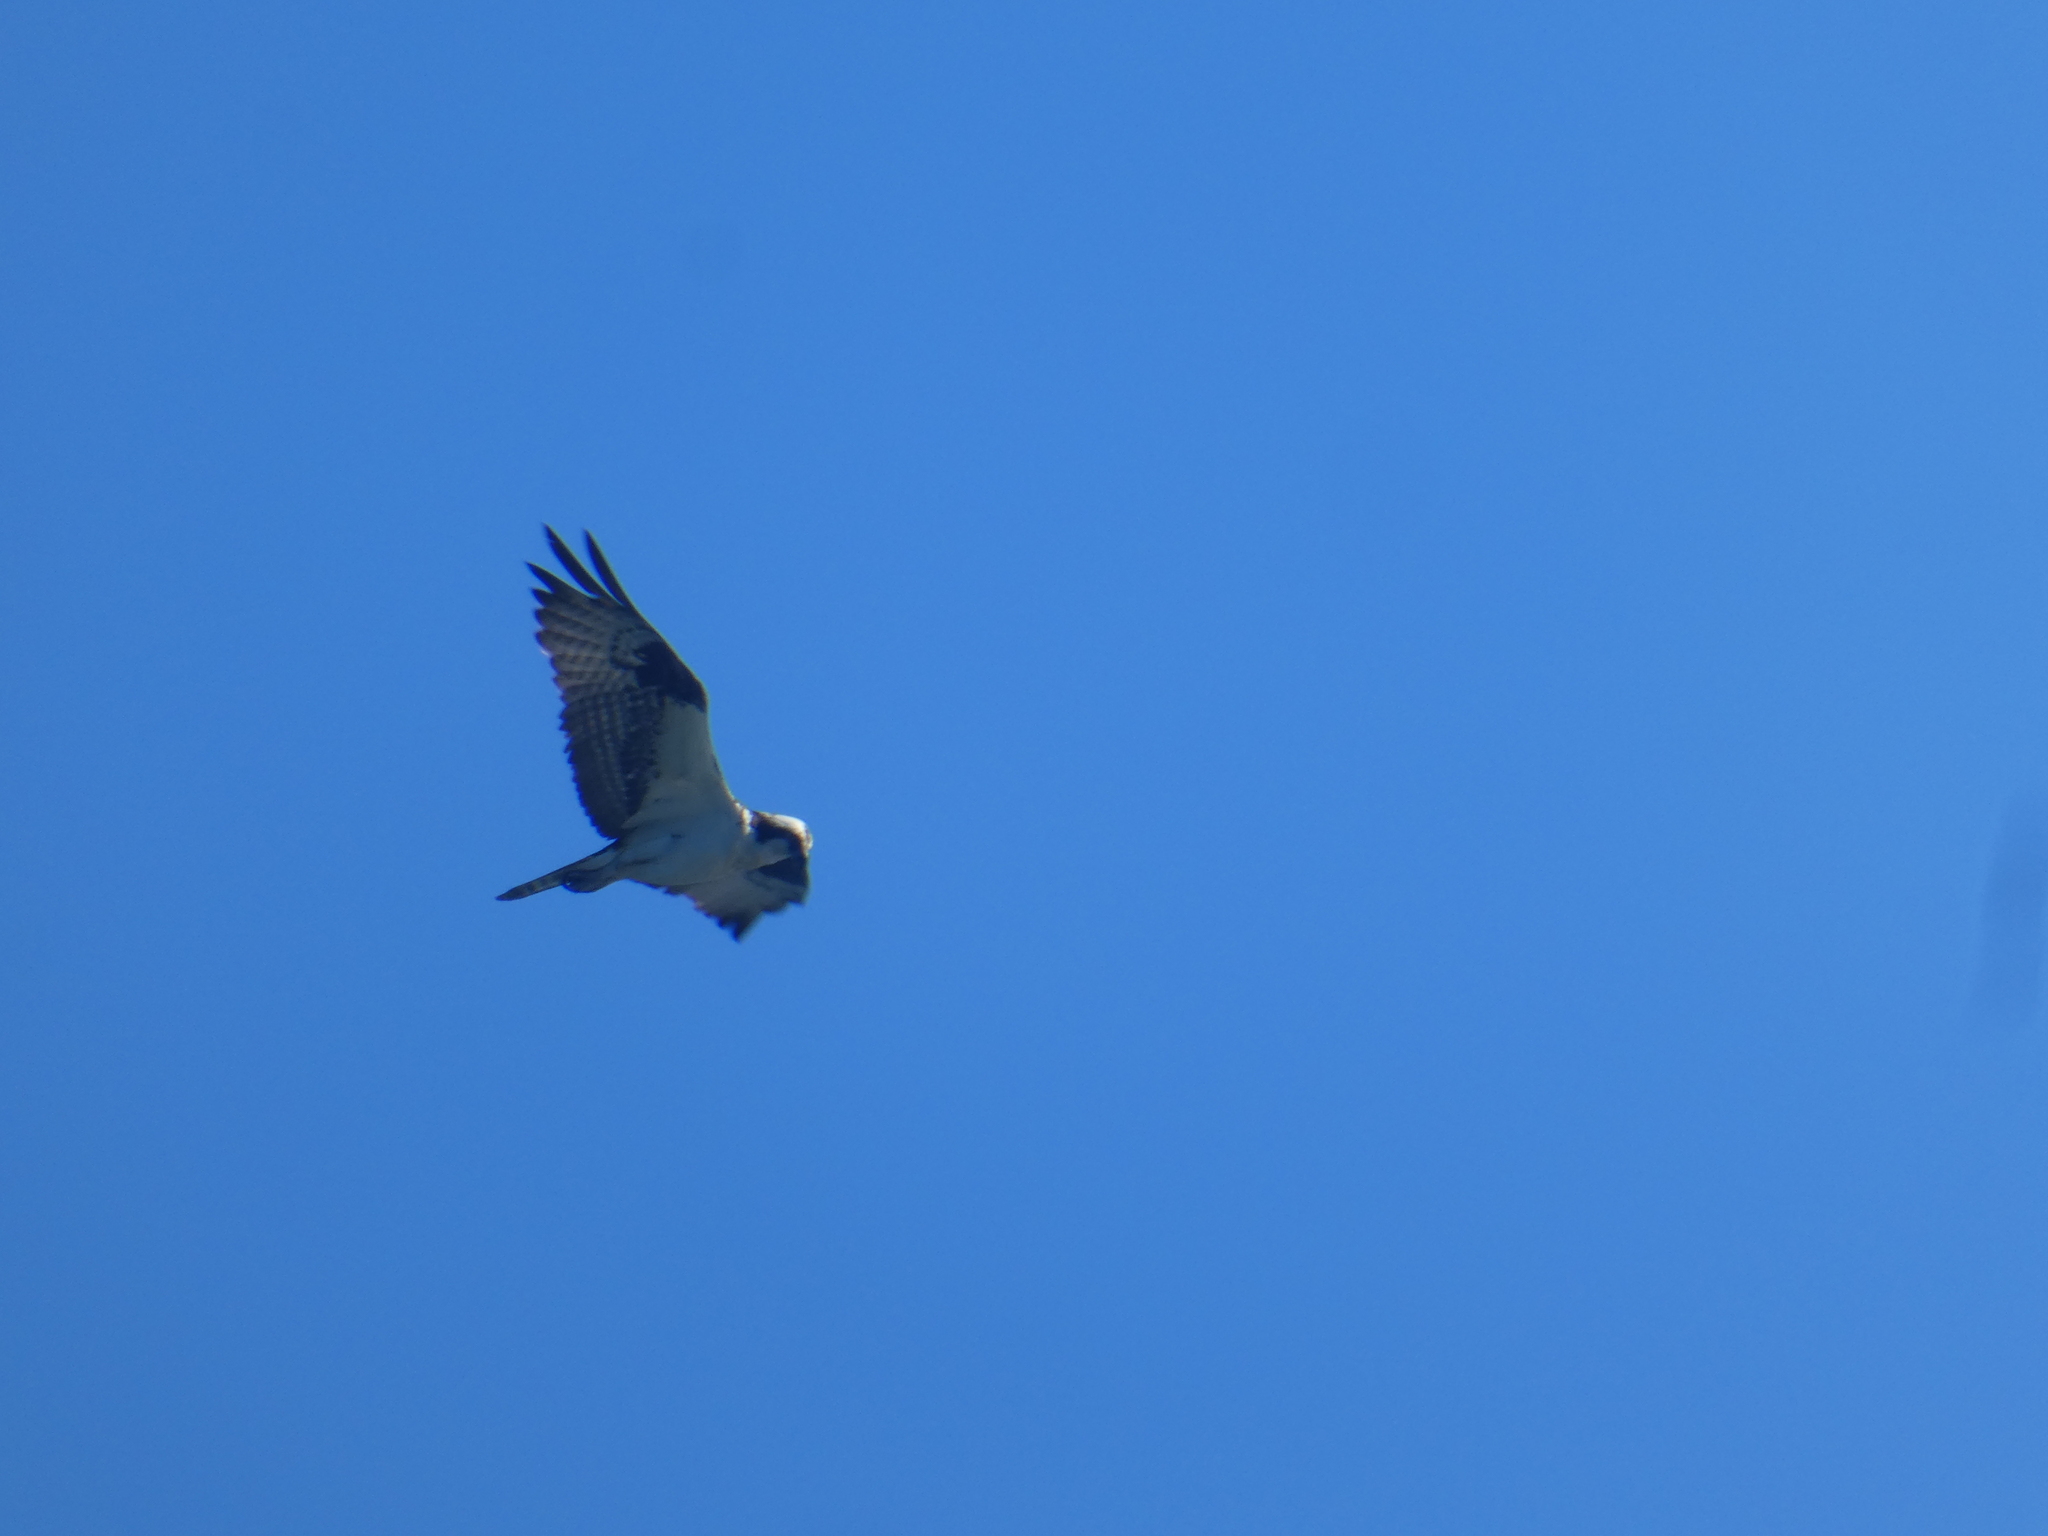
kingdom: Animalia
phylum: Chordata
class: Aves
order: Accipitriformes
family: Pandionidae
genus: Pandion
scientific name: Pandion haliaetus
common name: Osprey
